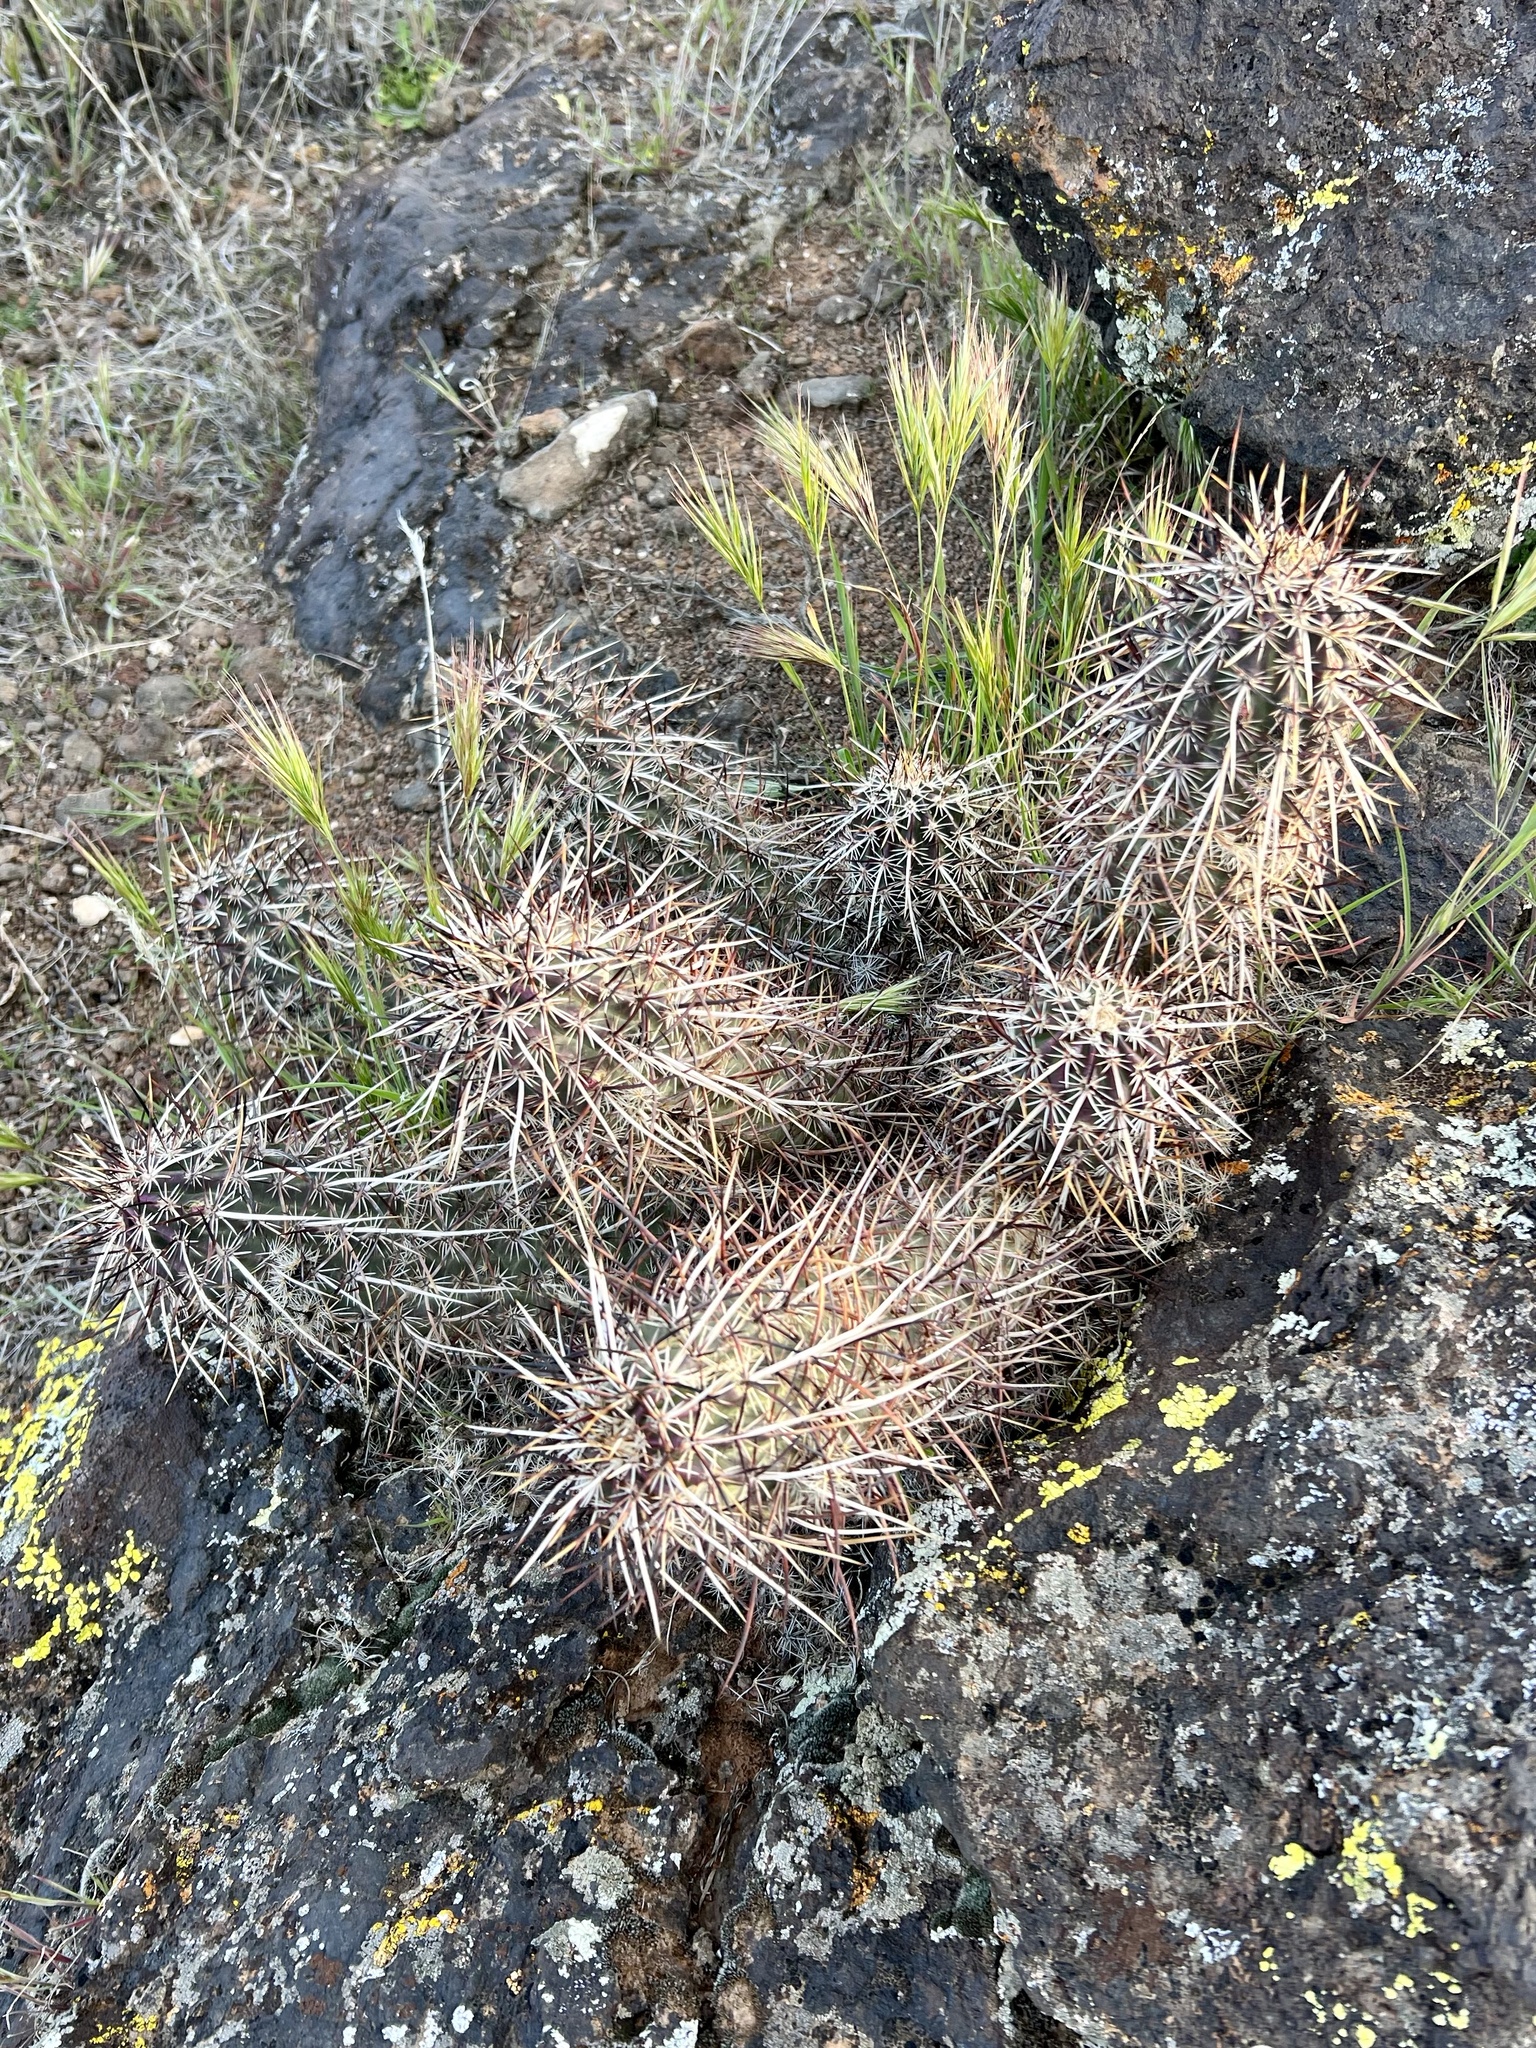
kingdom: Plantae
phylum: Tracheophyta
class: Magnoliopsida
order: Caryophyllales
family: Cactaceae
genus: Echinocereus
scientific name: Echinocereus relictus
